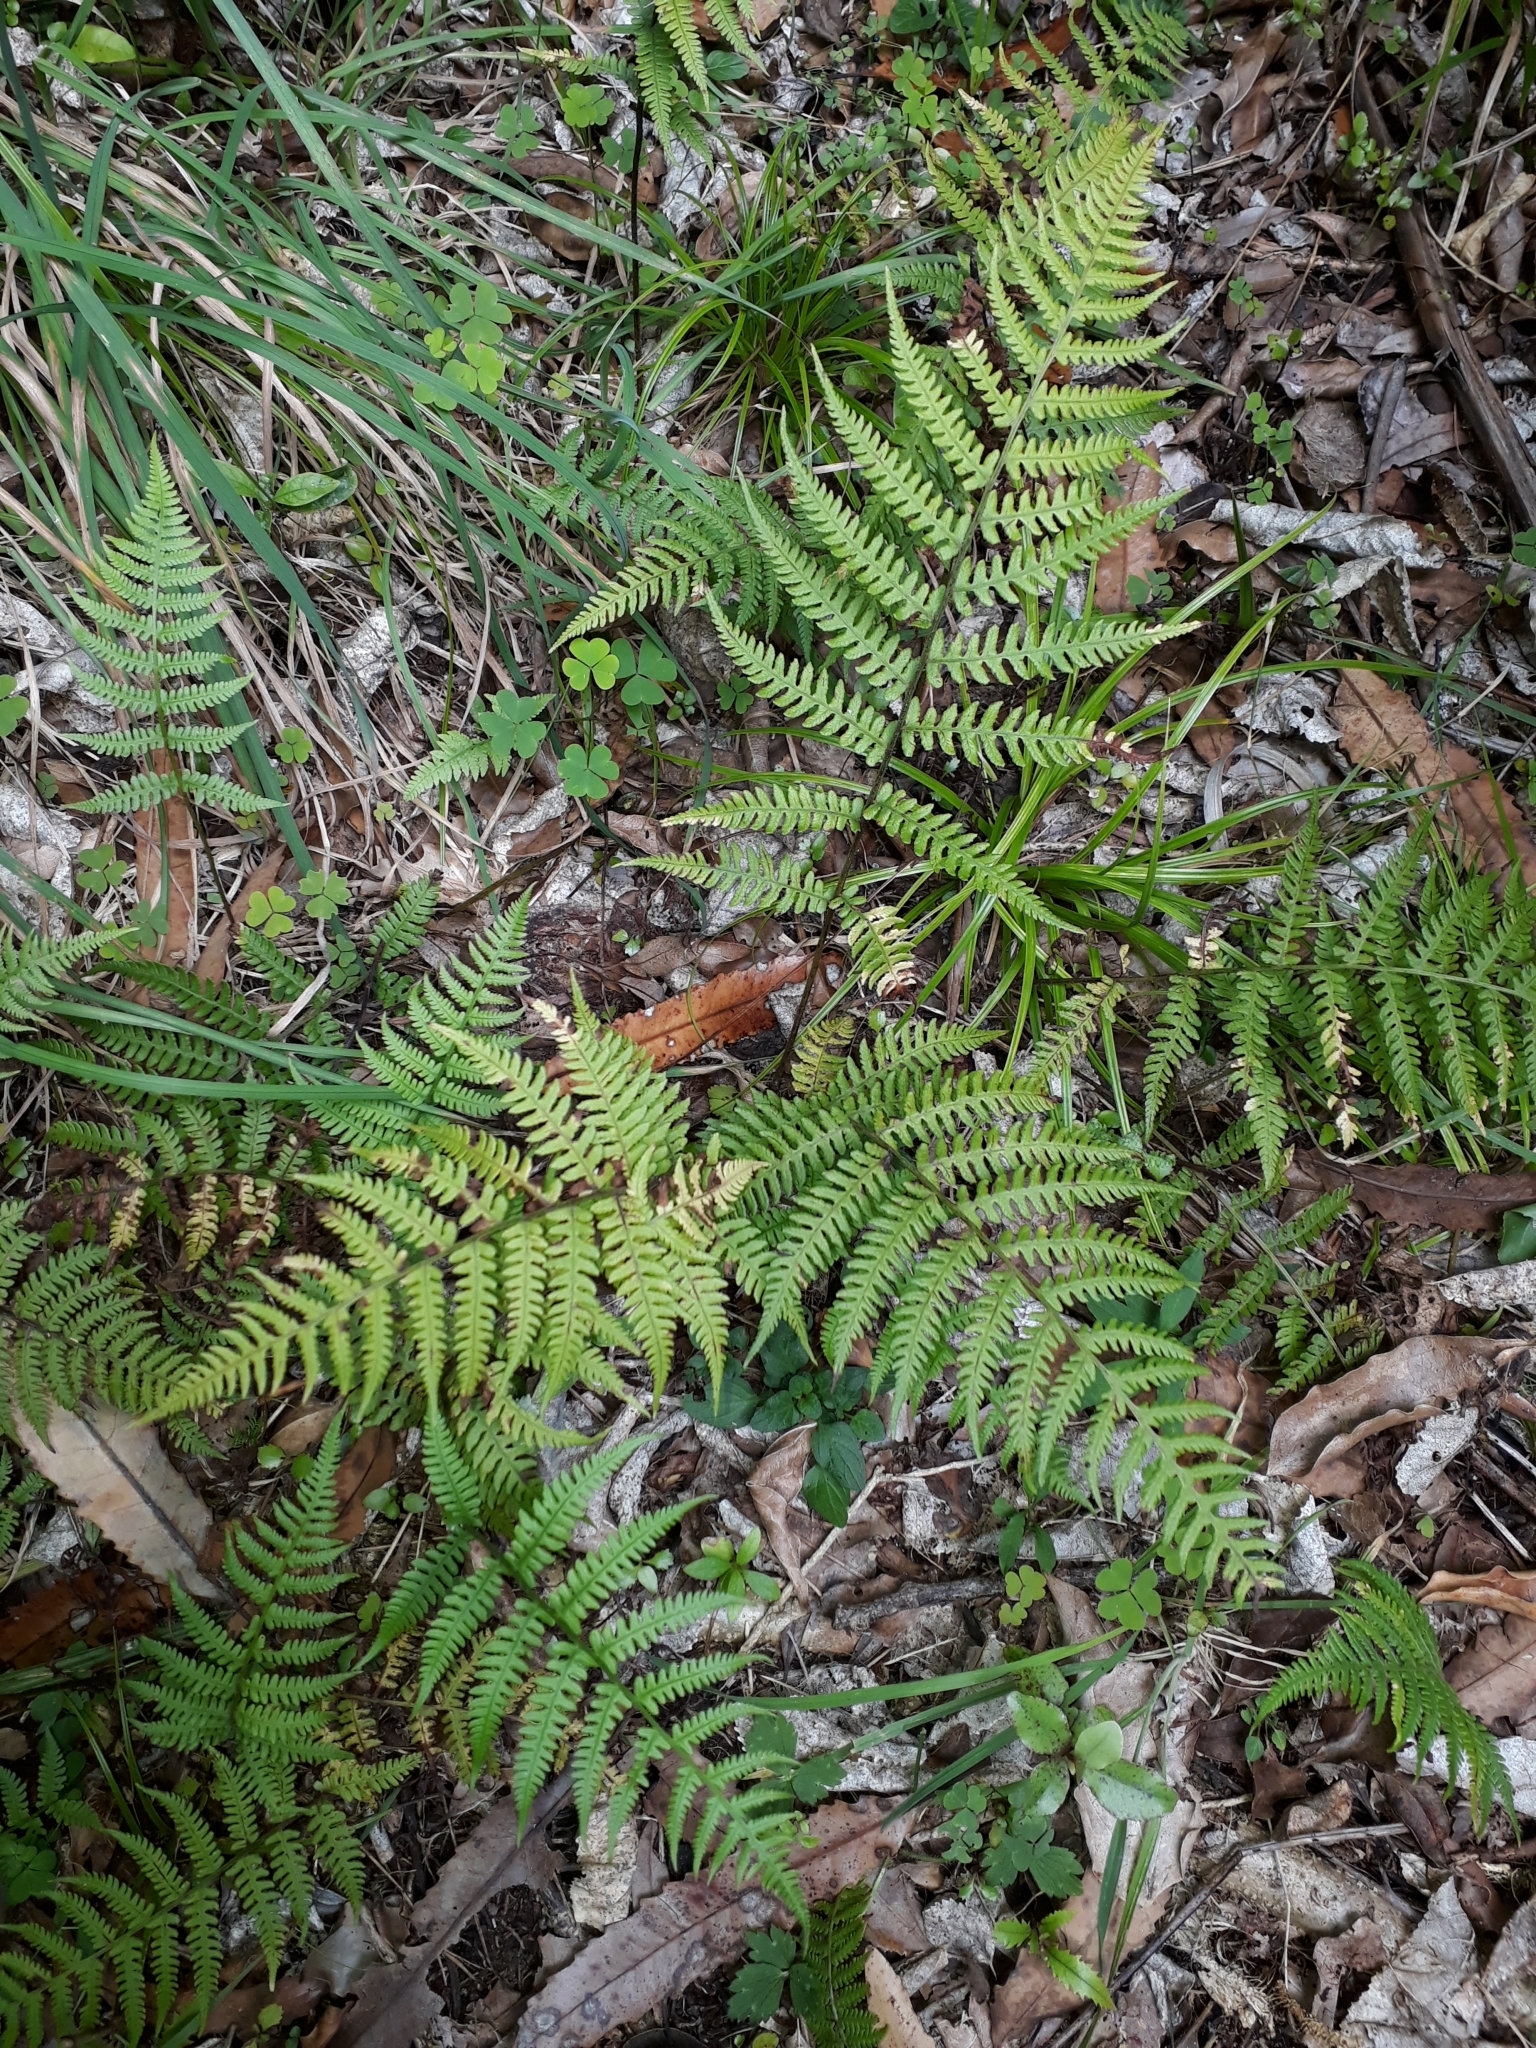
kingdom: Plantae
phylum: Tracheophyta
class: Polypodiopsida
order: Polypodiales
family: Athyriaceae
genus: Deparia
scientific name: Deparia petersenii
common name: Japanese false spleenwort
